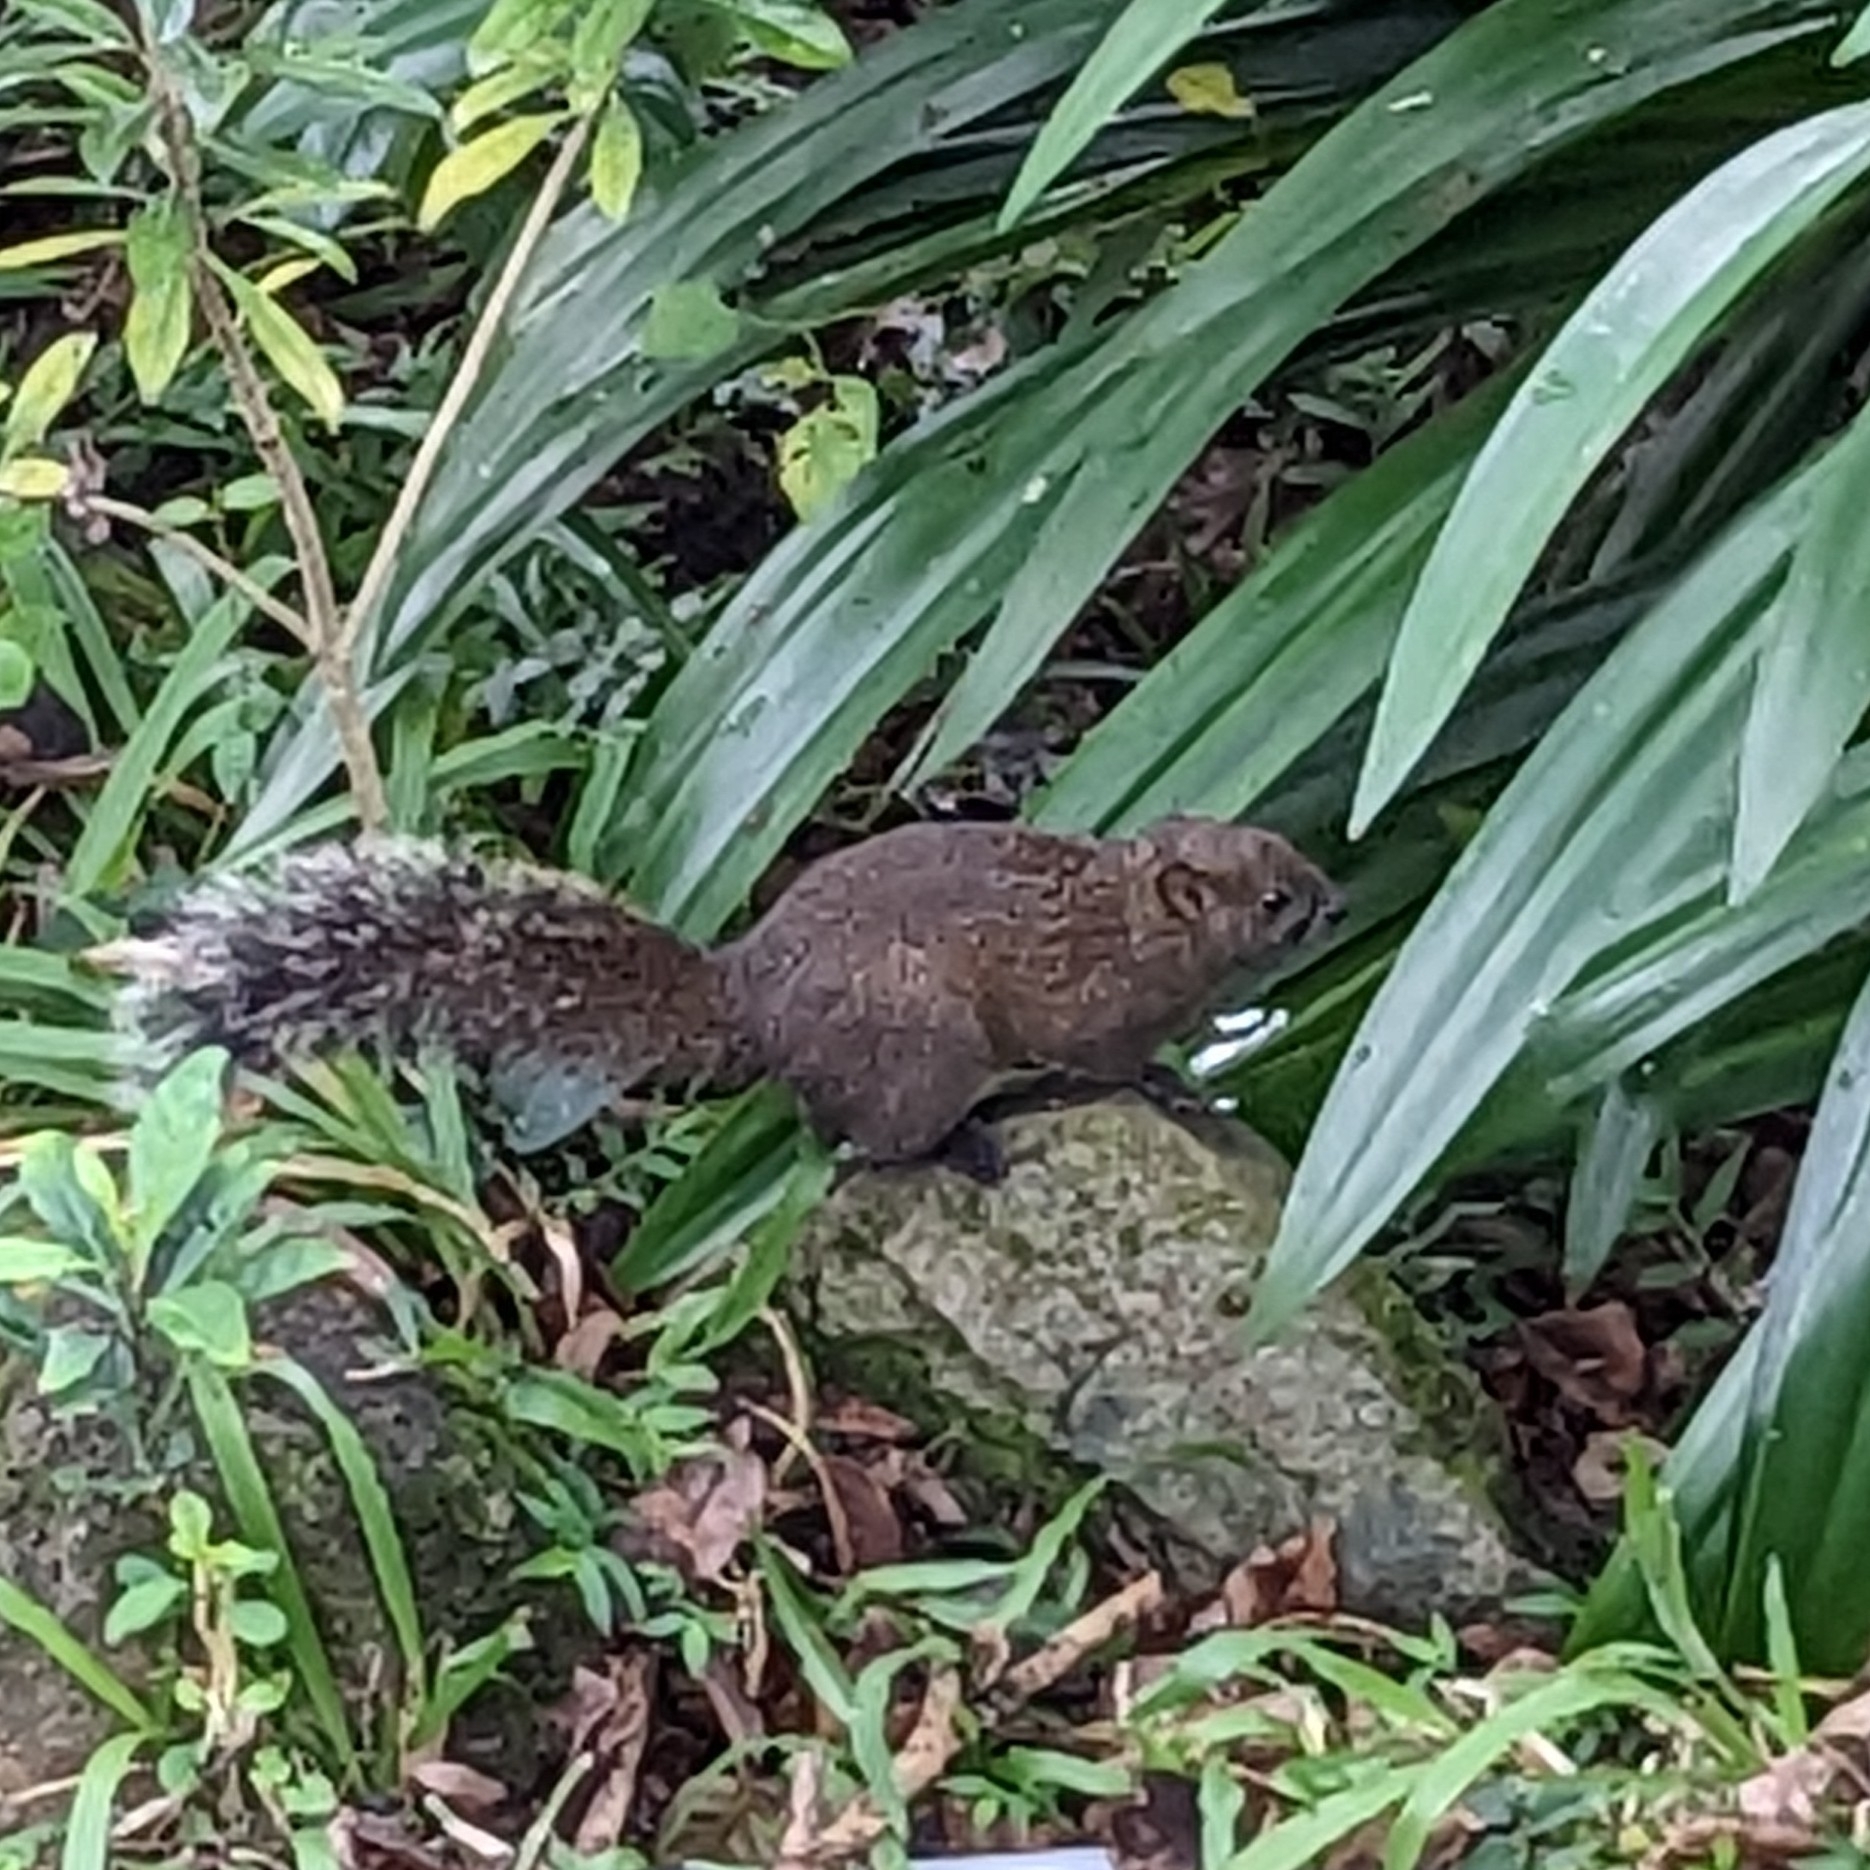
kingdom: Animalia
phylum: Chordata
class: Mammalia
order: Rodentia
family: Sciuridae
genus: Callosciurus
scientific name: Callosciurus erythraeus
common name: Pallas's squirrel
